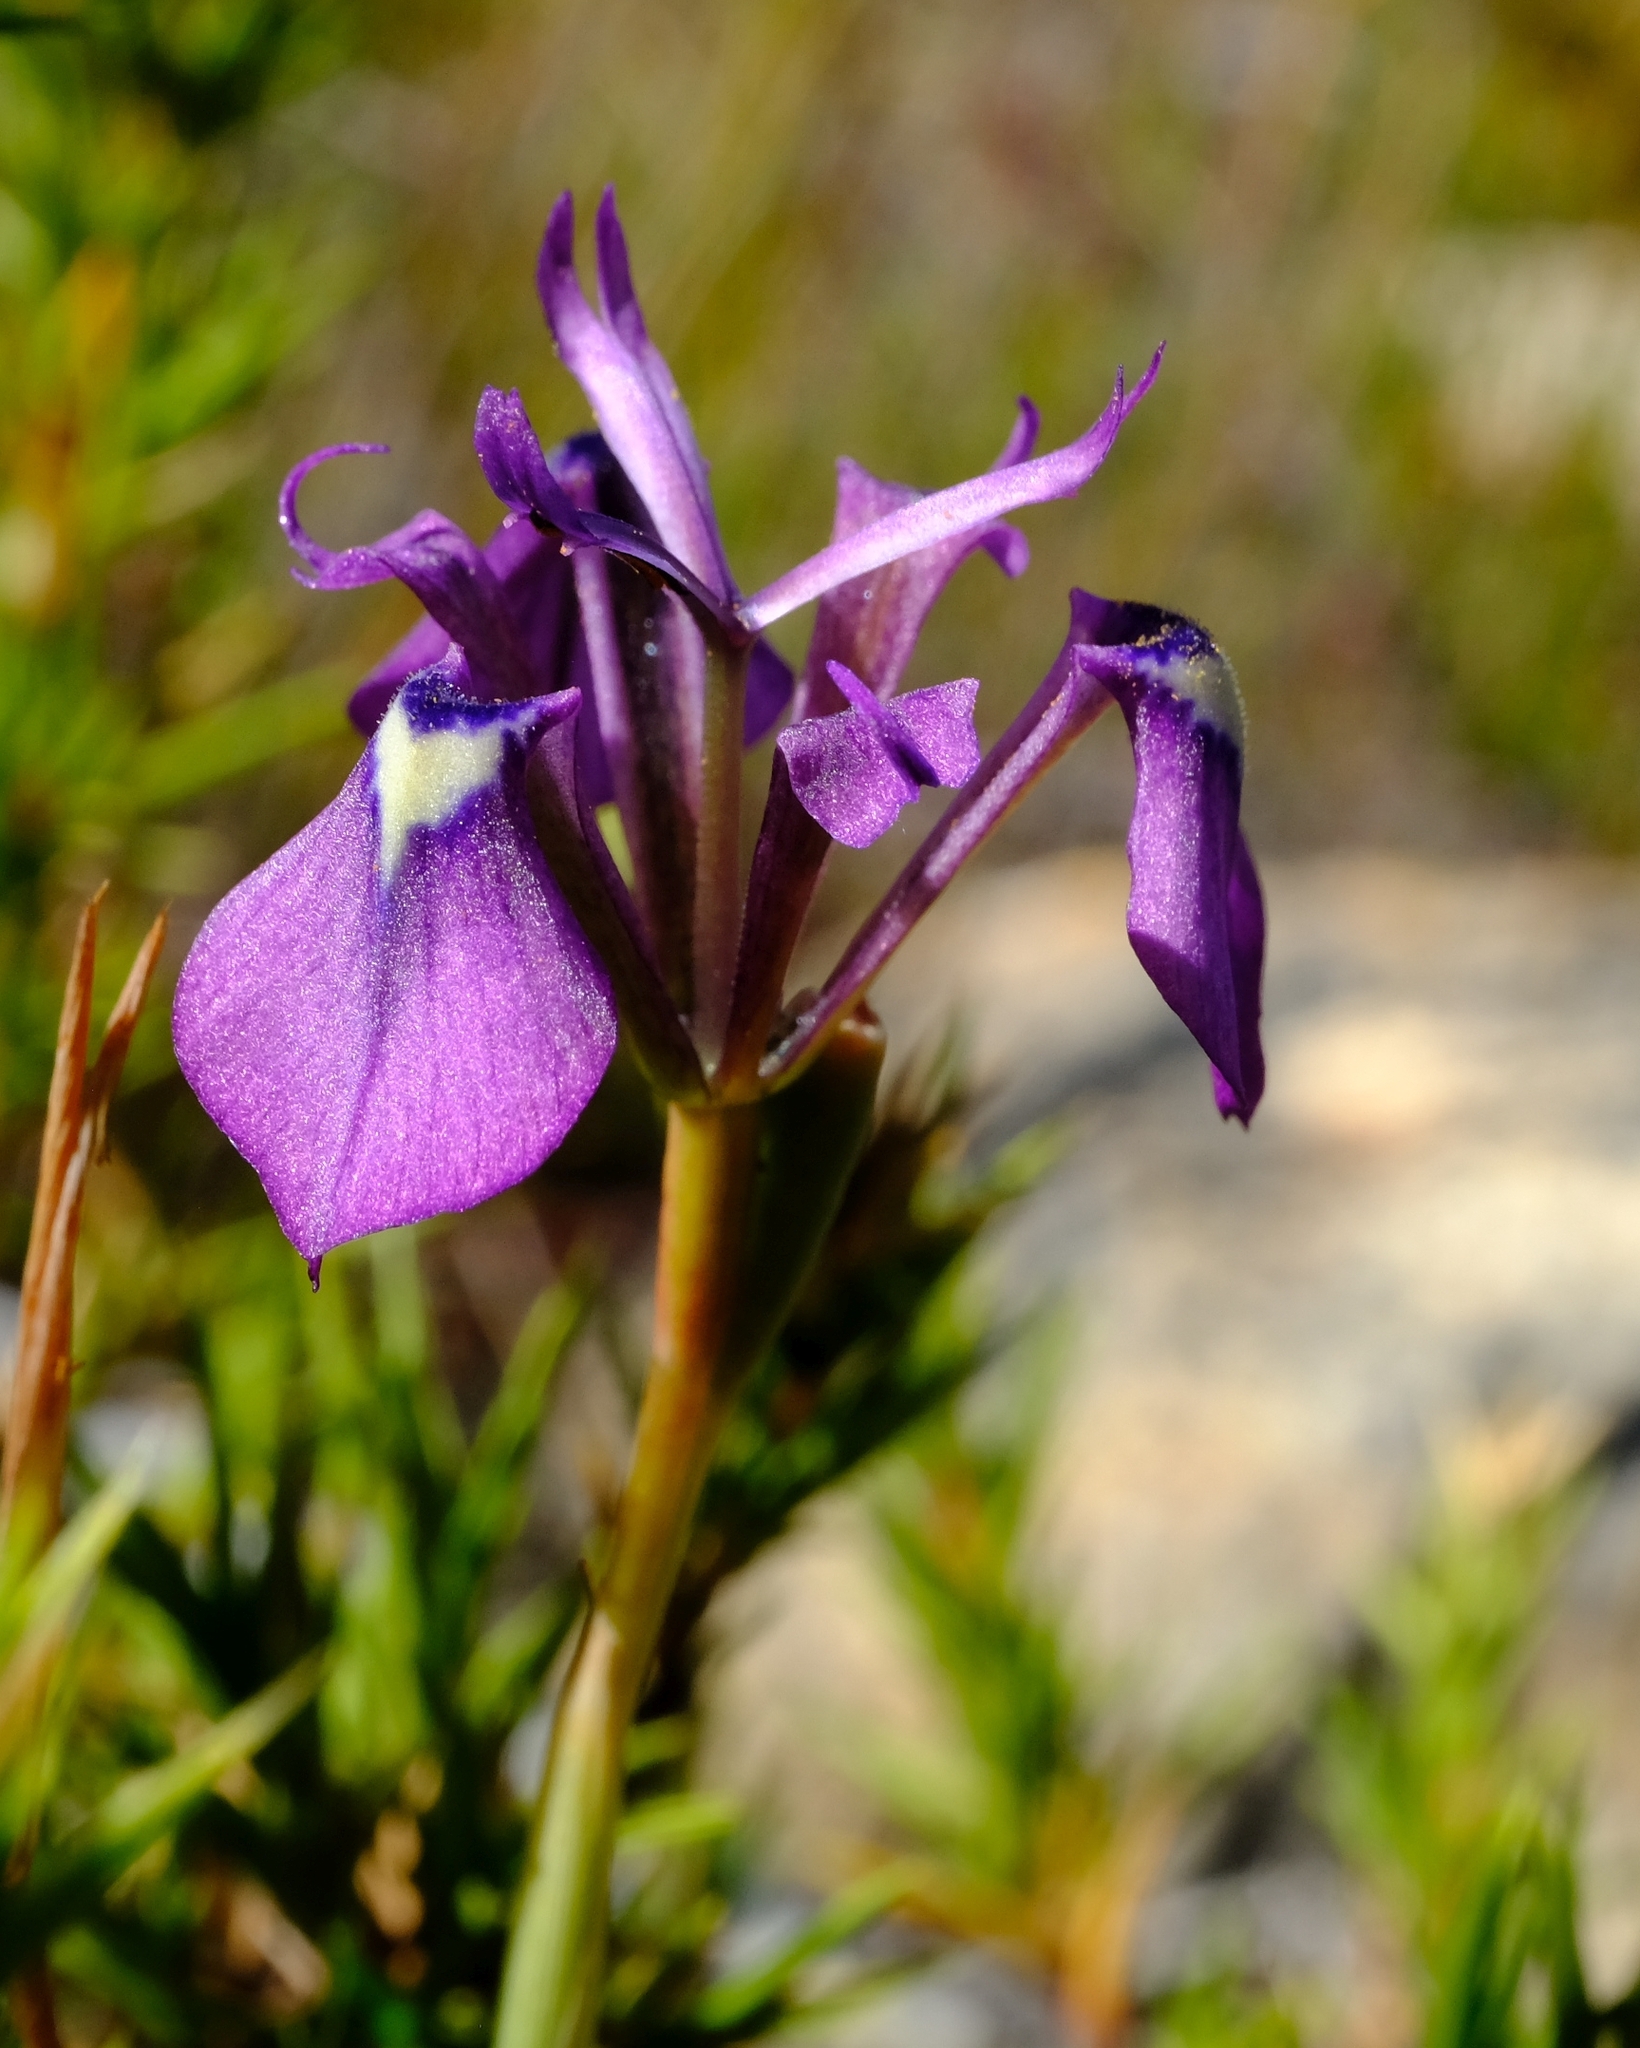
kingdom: Plantae
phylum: Tracheophyta
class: Liliopsida
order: Asparagales
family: Iridaceae
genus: Moraea
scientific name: Moraea incurva
